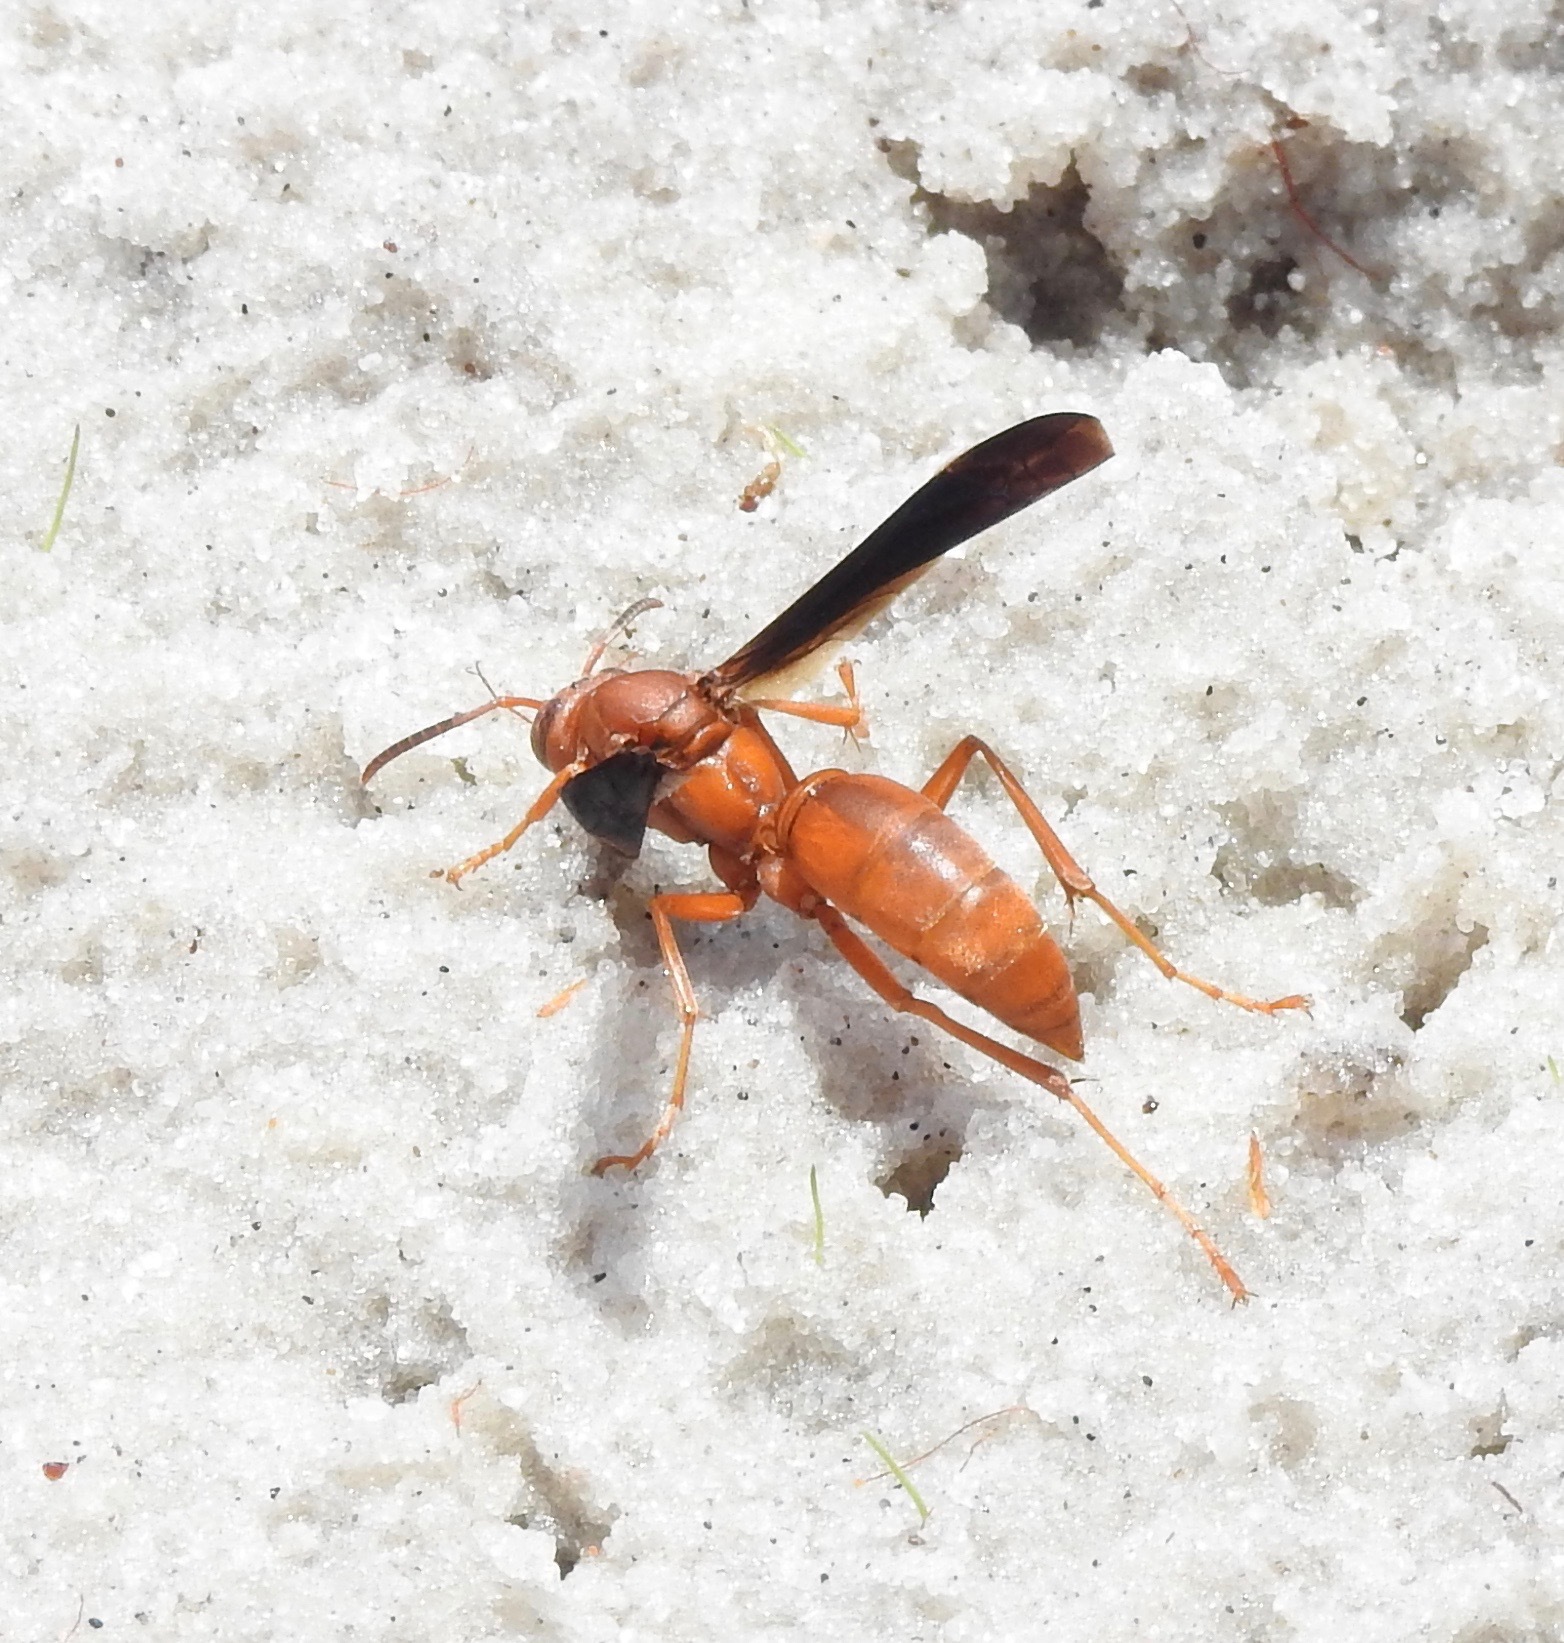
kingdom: Animalia
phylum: Arthropoda
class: Insecta
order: Hymenoptera
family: Eumenidae
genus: Polistes
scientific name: Polistes carolina
